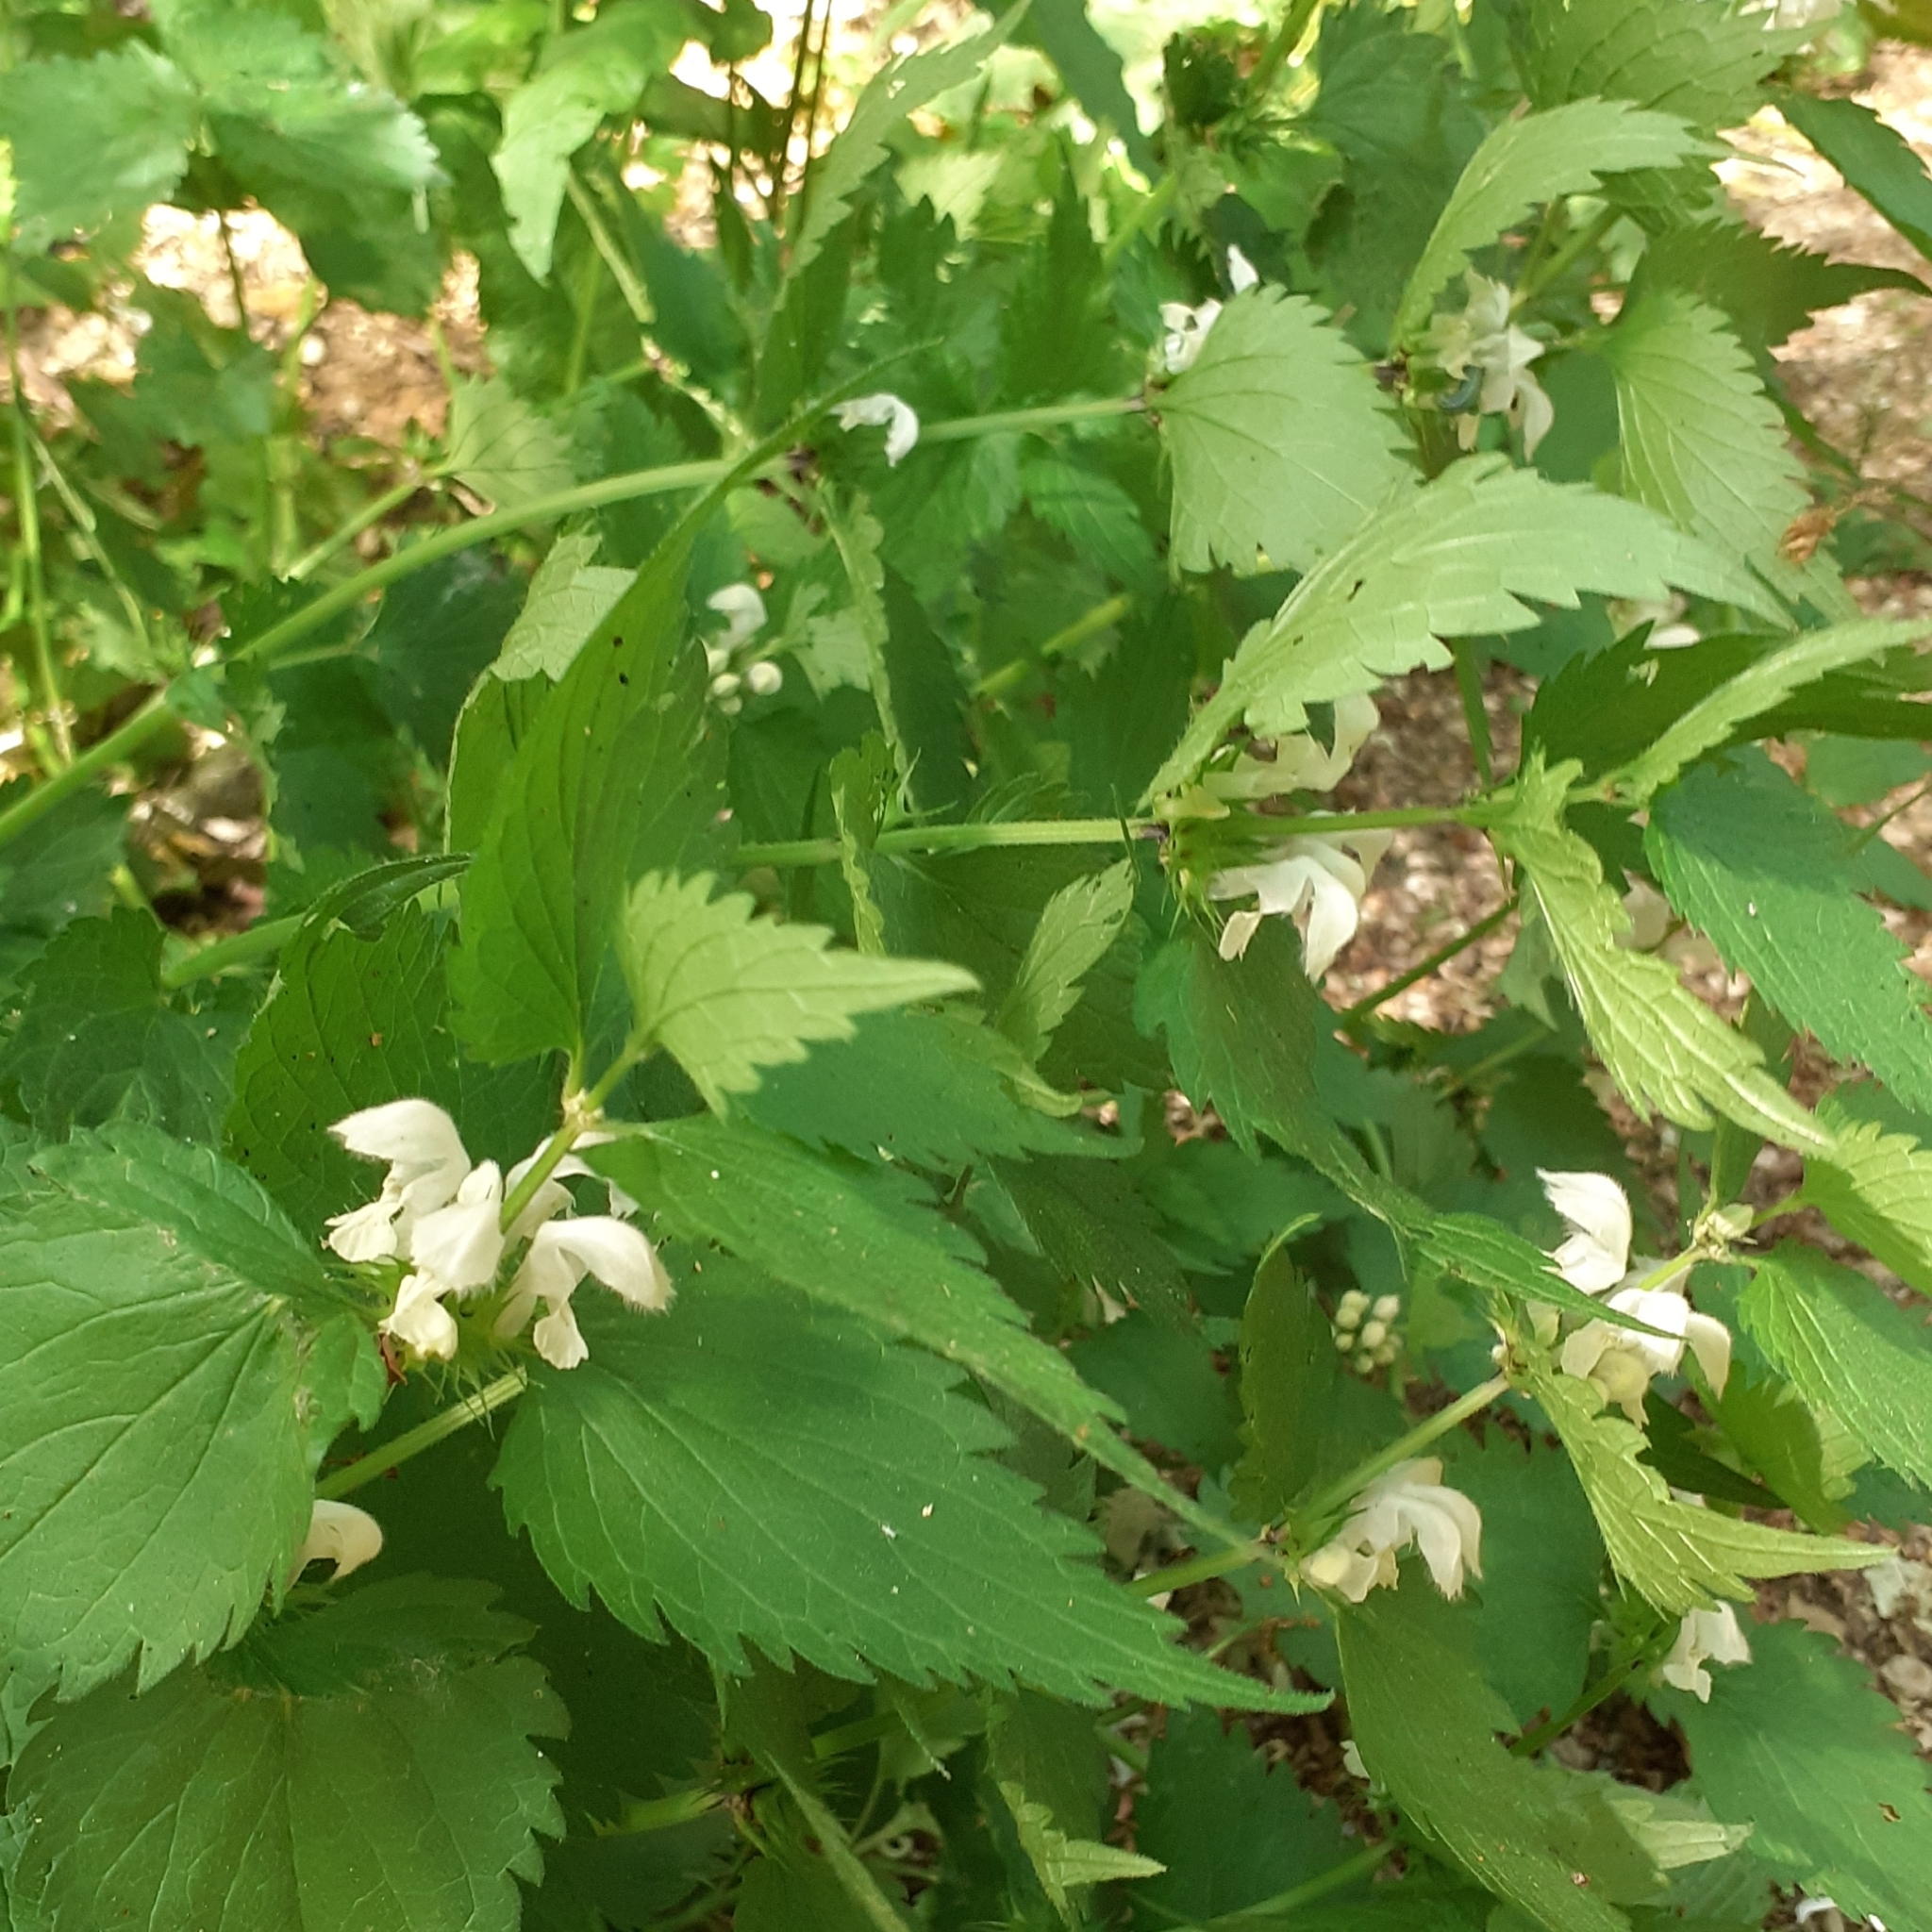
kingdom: Plantae
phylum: Tracheophyta
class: Magnoliopsida
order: Lamiales
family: Lamiaceae
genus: Lamium
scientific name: Lamium album
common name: White dead-nettle
